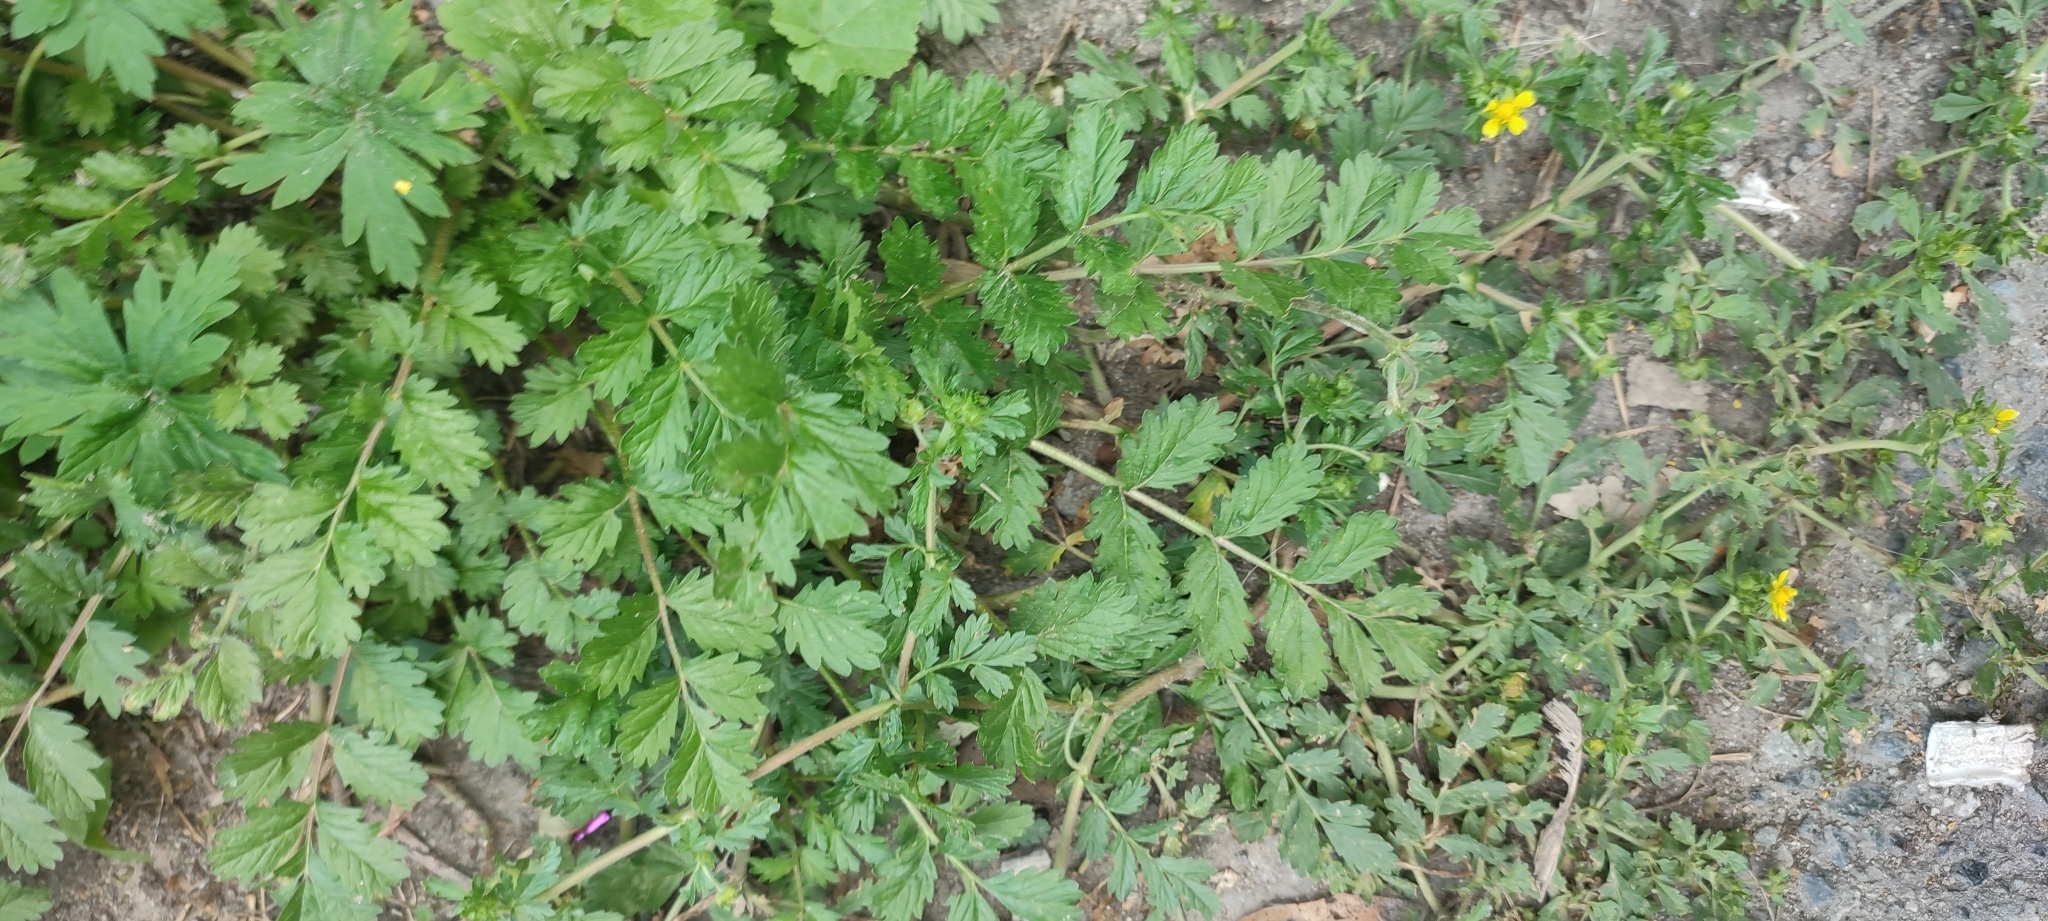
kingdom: Plantae
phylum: Tracheophyta
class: Magnoliopsida
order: Rosales
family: Rosaceae
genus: Potentilla
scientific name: Potentilla supina
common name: Prostrate cinquefoil
